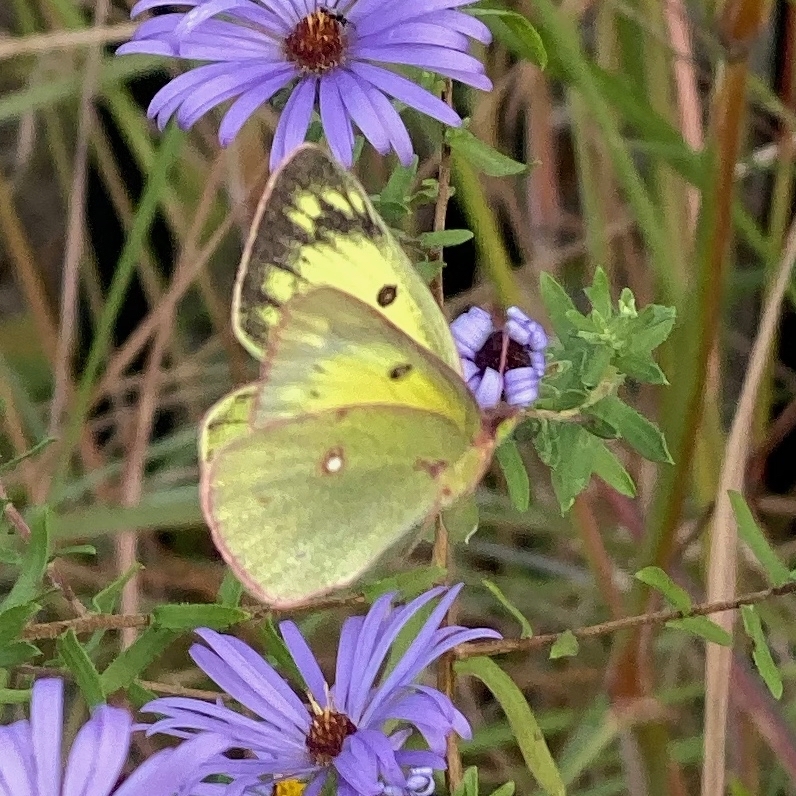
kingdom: Animalia
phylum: Arthropoda
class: Insecta
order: Lepidoptera
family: Pieridae
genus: Colias
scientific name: Colias philodice
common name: Clouded sulphur
